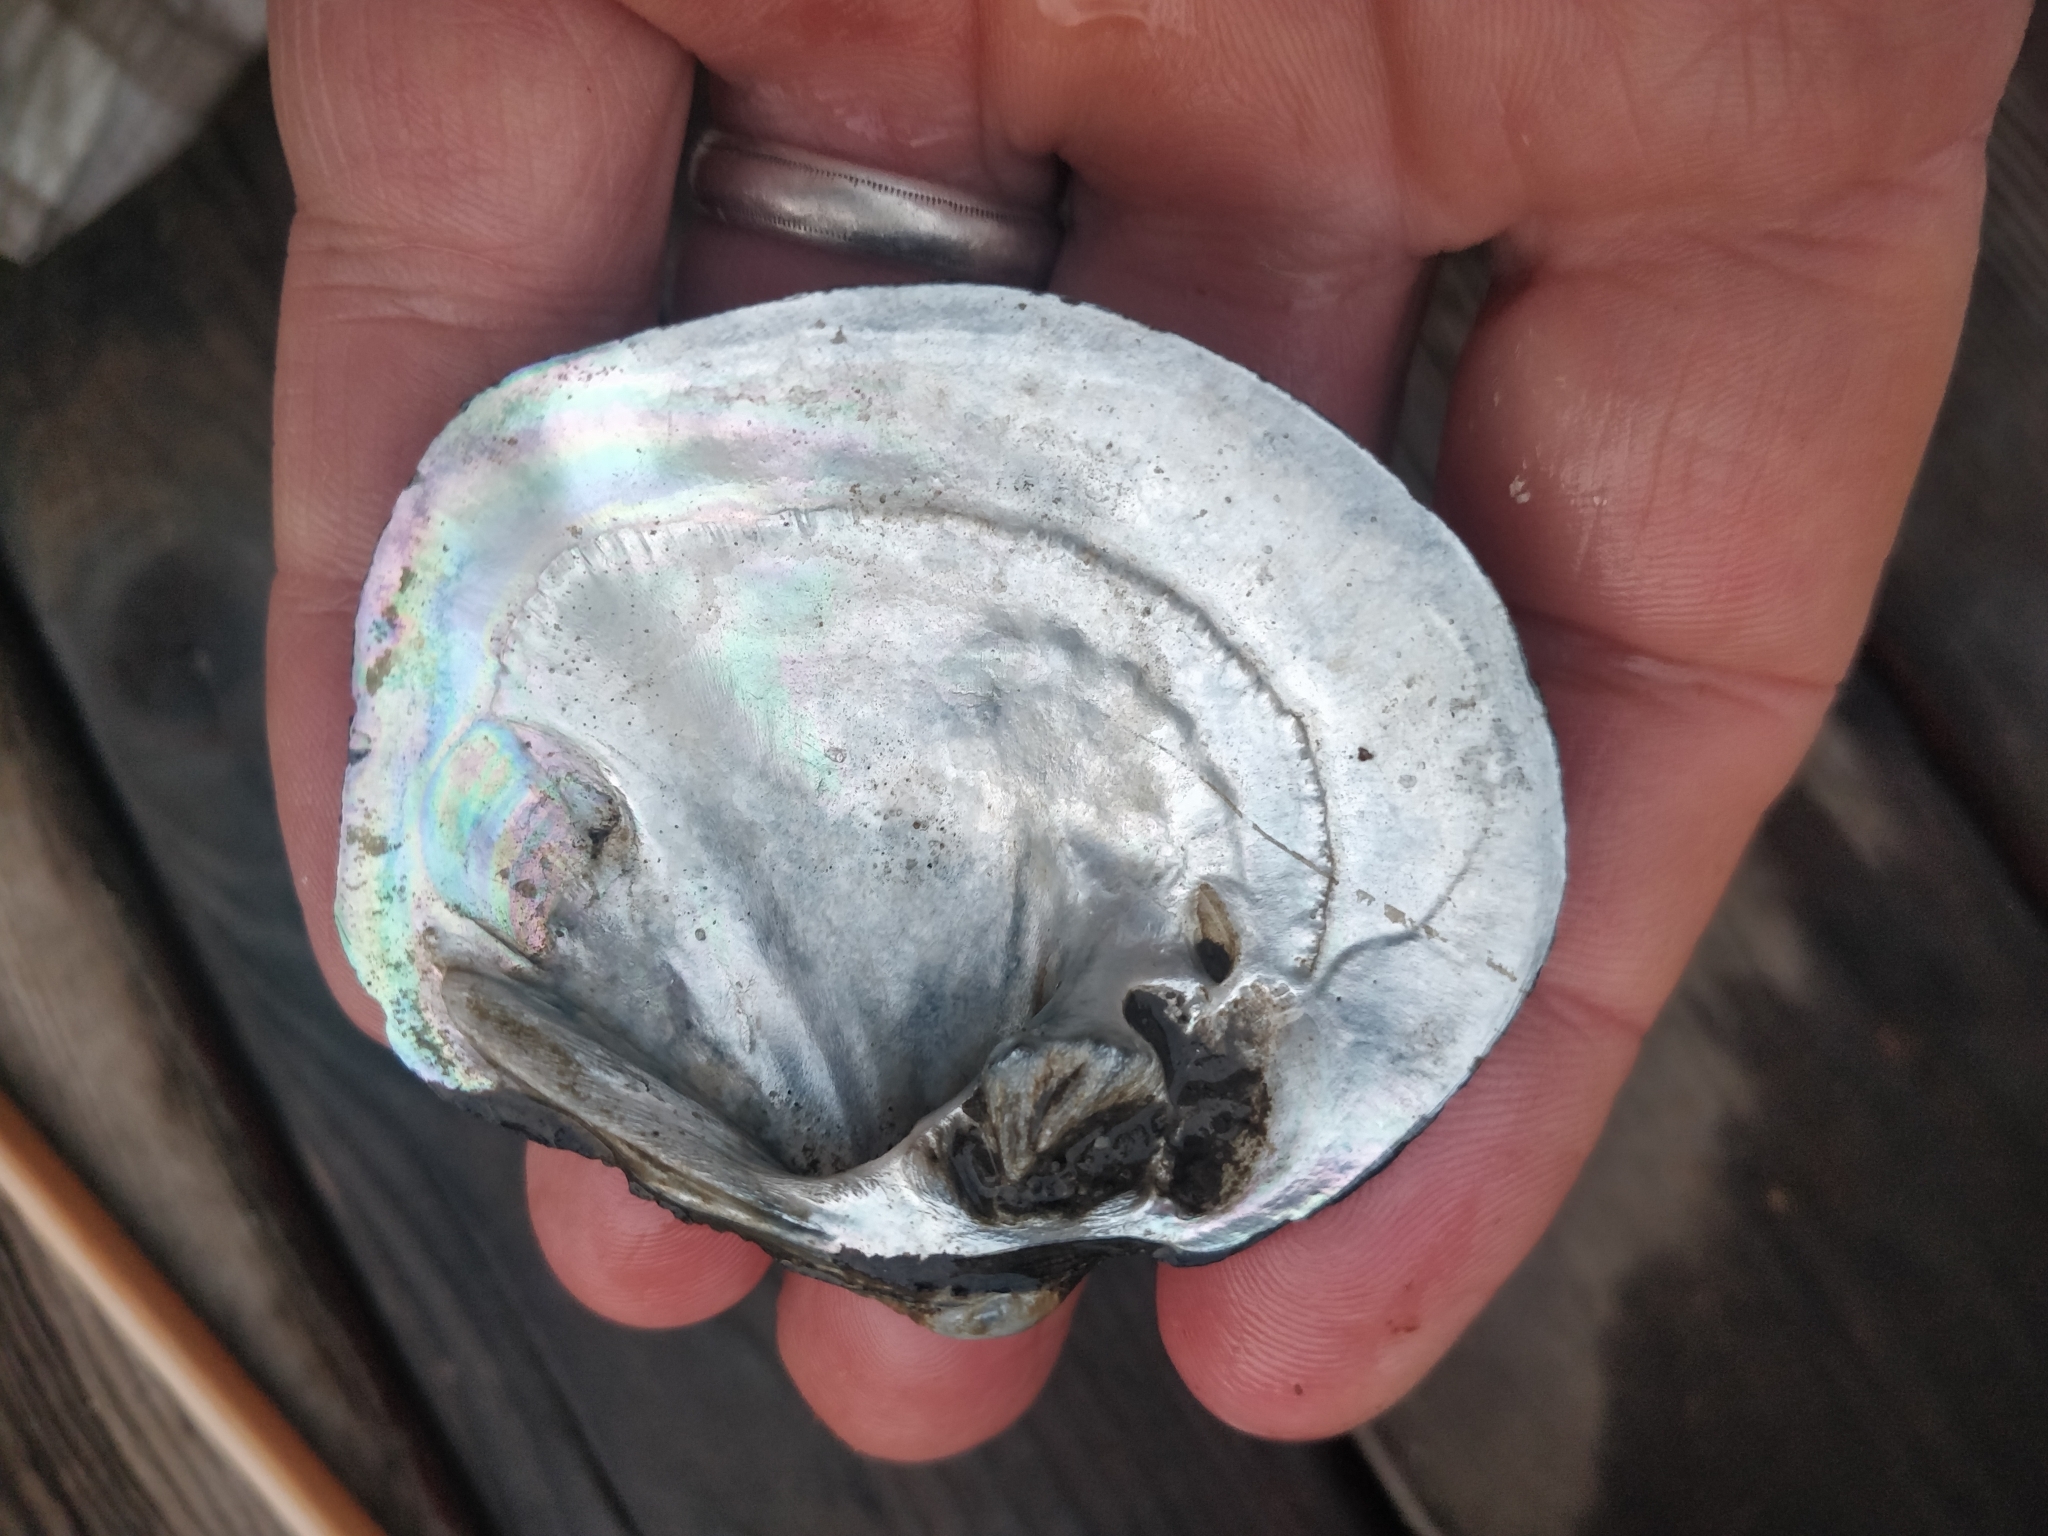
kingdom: Animalia
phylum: Mollusca
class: Bivalvia
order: Unionida
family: Unionidae
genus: Cyclonaias
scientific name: Cyclonaias pustulosa
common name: Pimpleback
